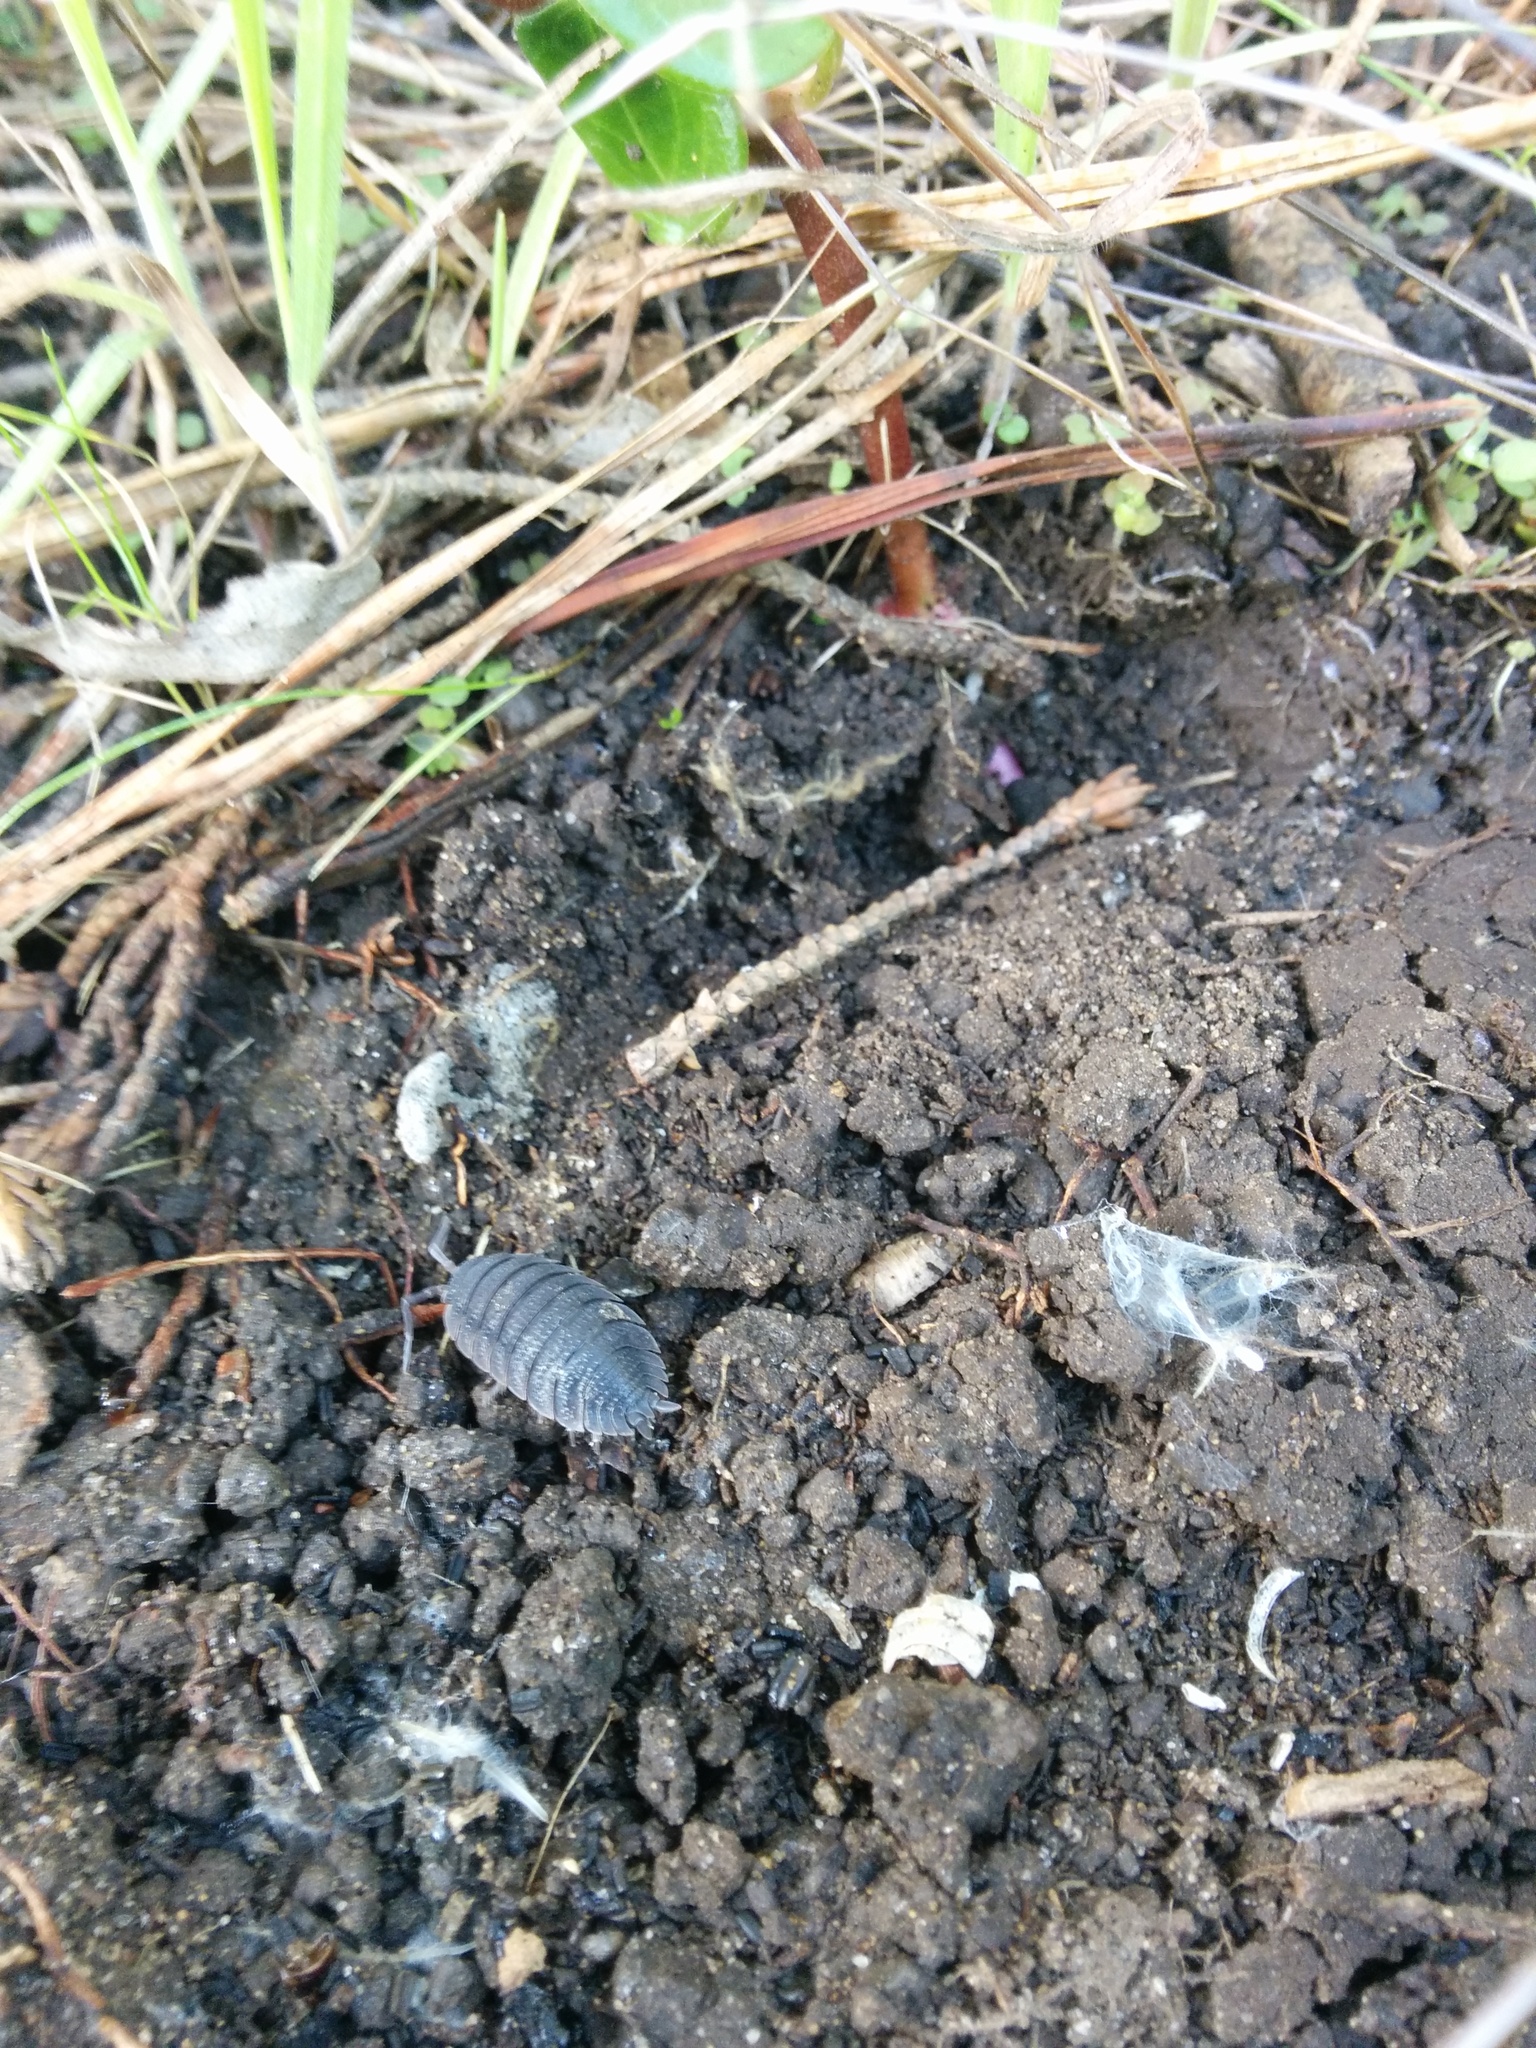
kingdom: Animalia
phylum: Arthropoda
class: Malacostraca
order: Isopoda
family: Porcellionidae
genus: Porcellio
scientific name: Porcellio scaber
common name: Common rough woodlouse
